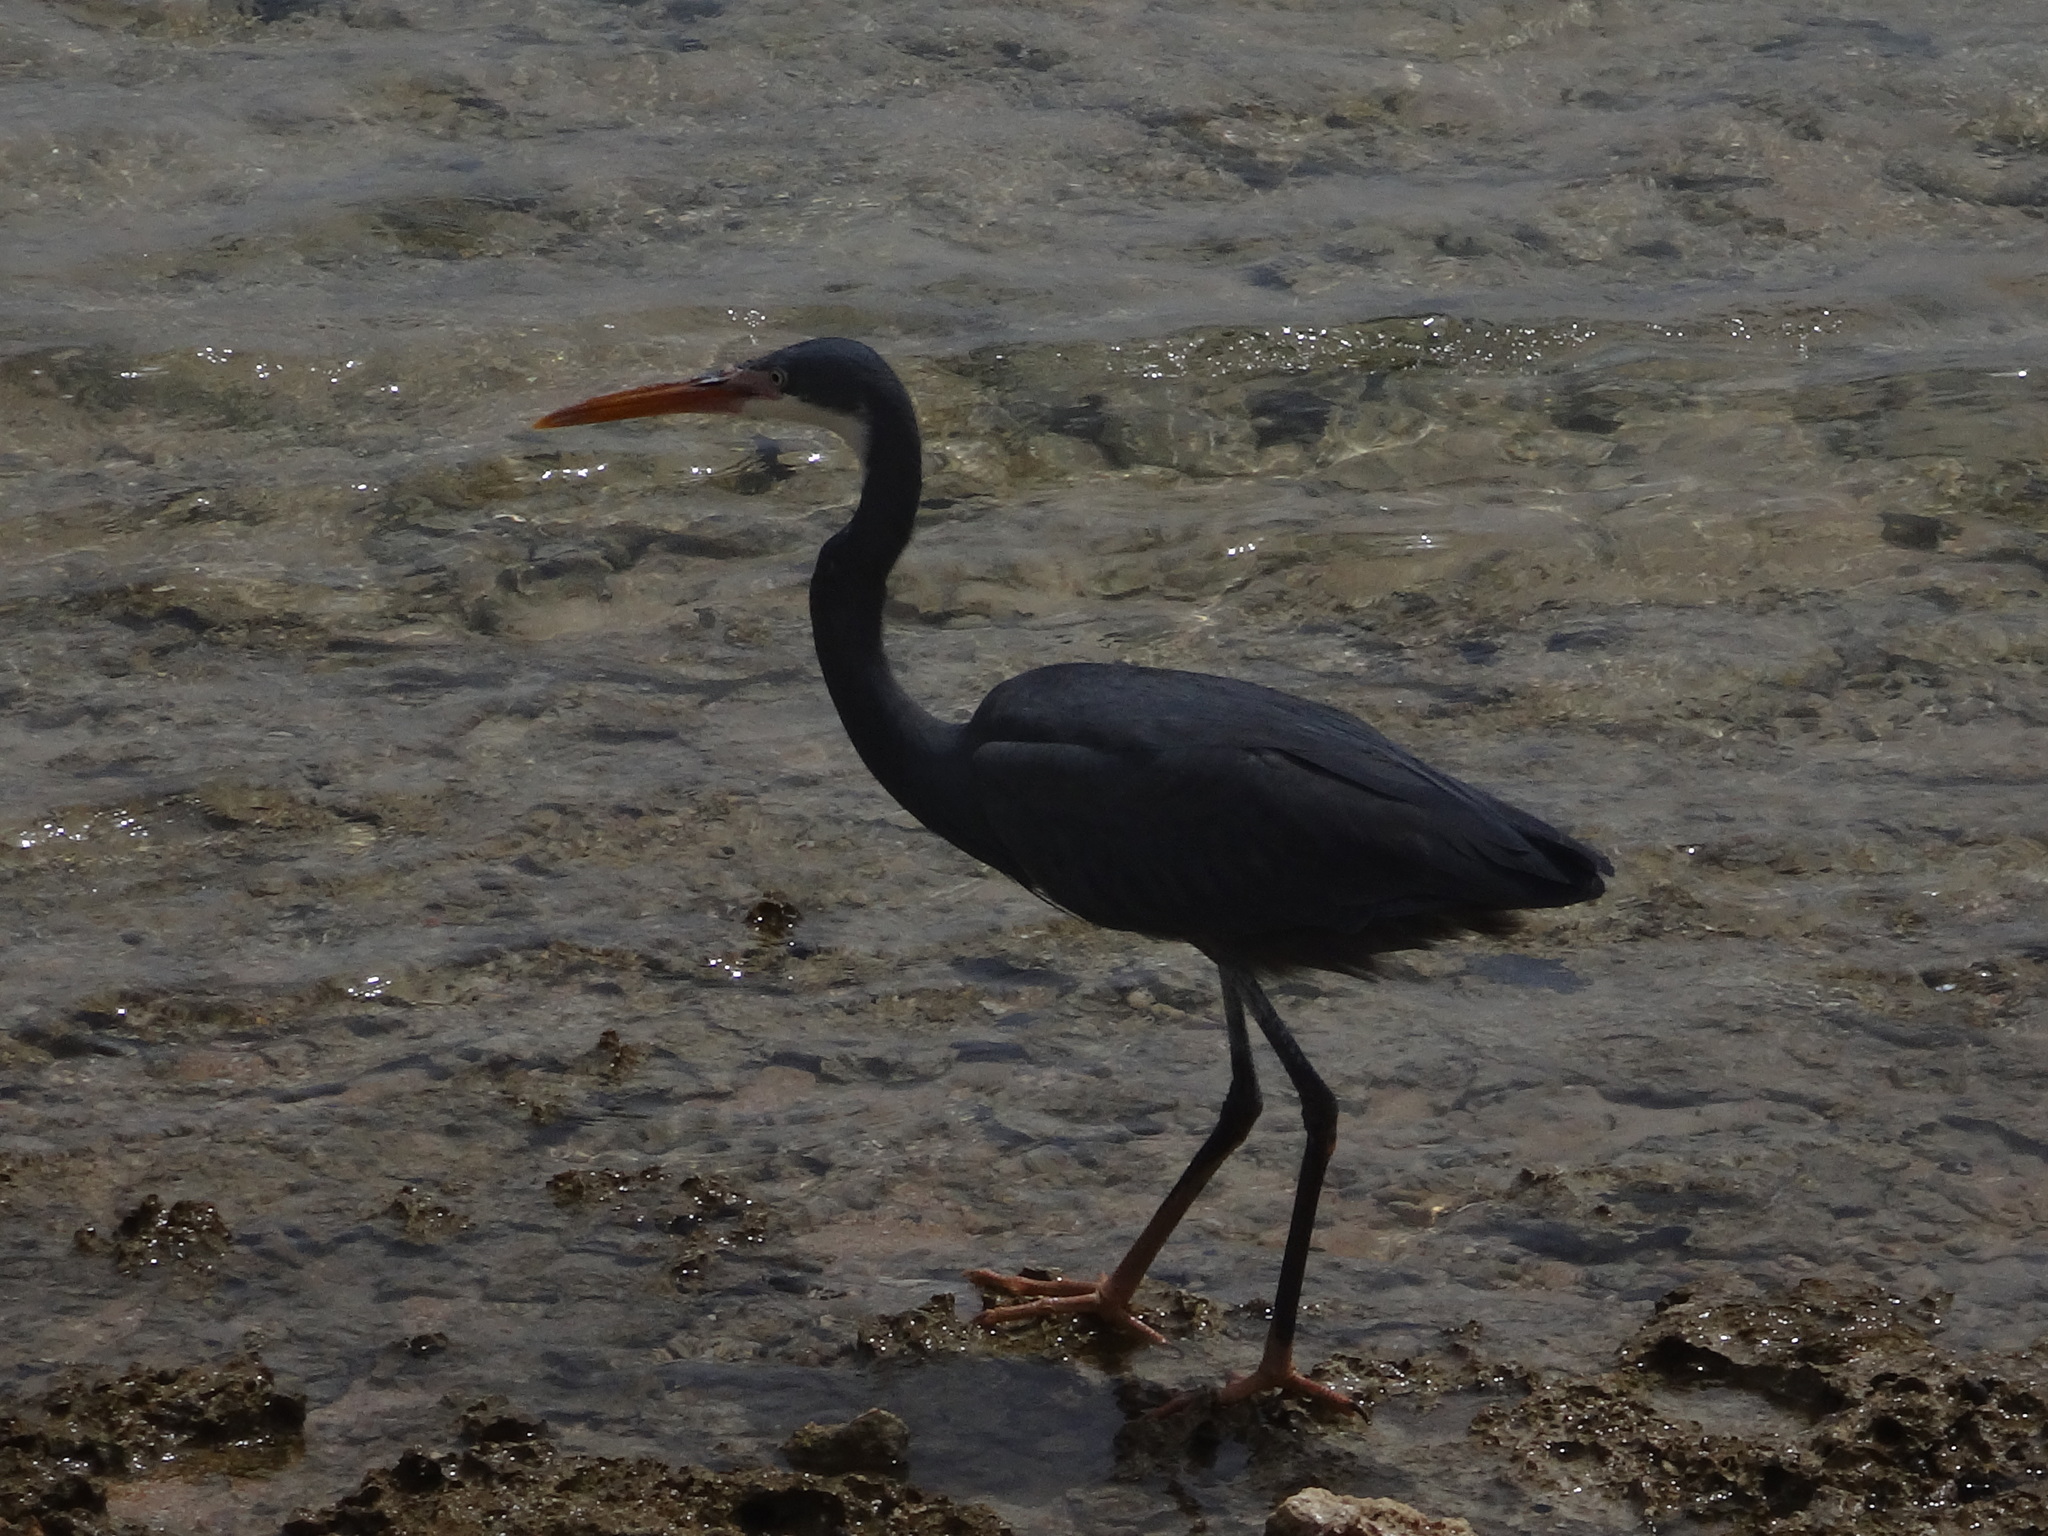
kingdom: Animalia
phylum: Chordata
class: Aves
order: Pelecaniformes
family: Ardeidae
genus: Egretta
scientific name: Egretta gularis
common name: Western reef-heron
